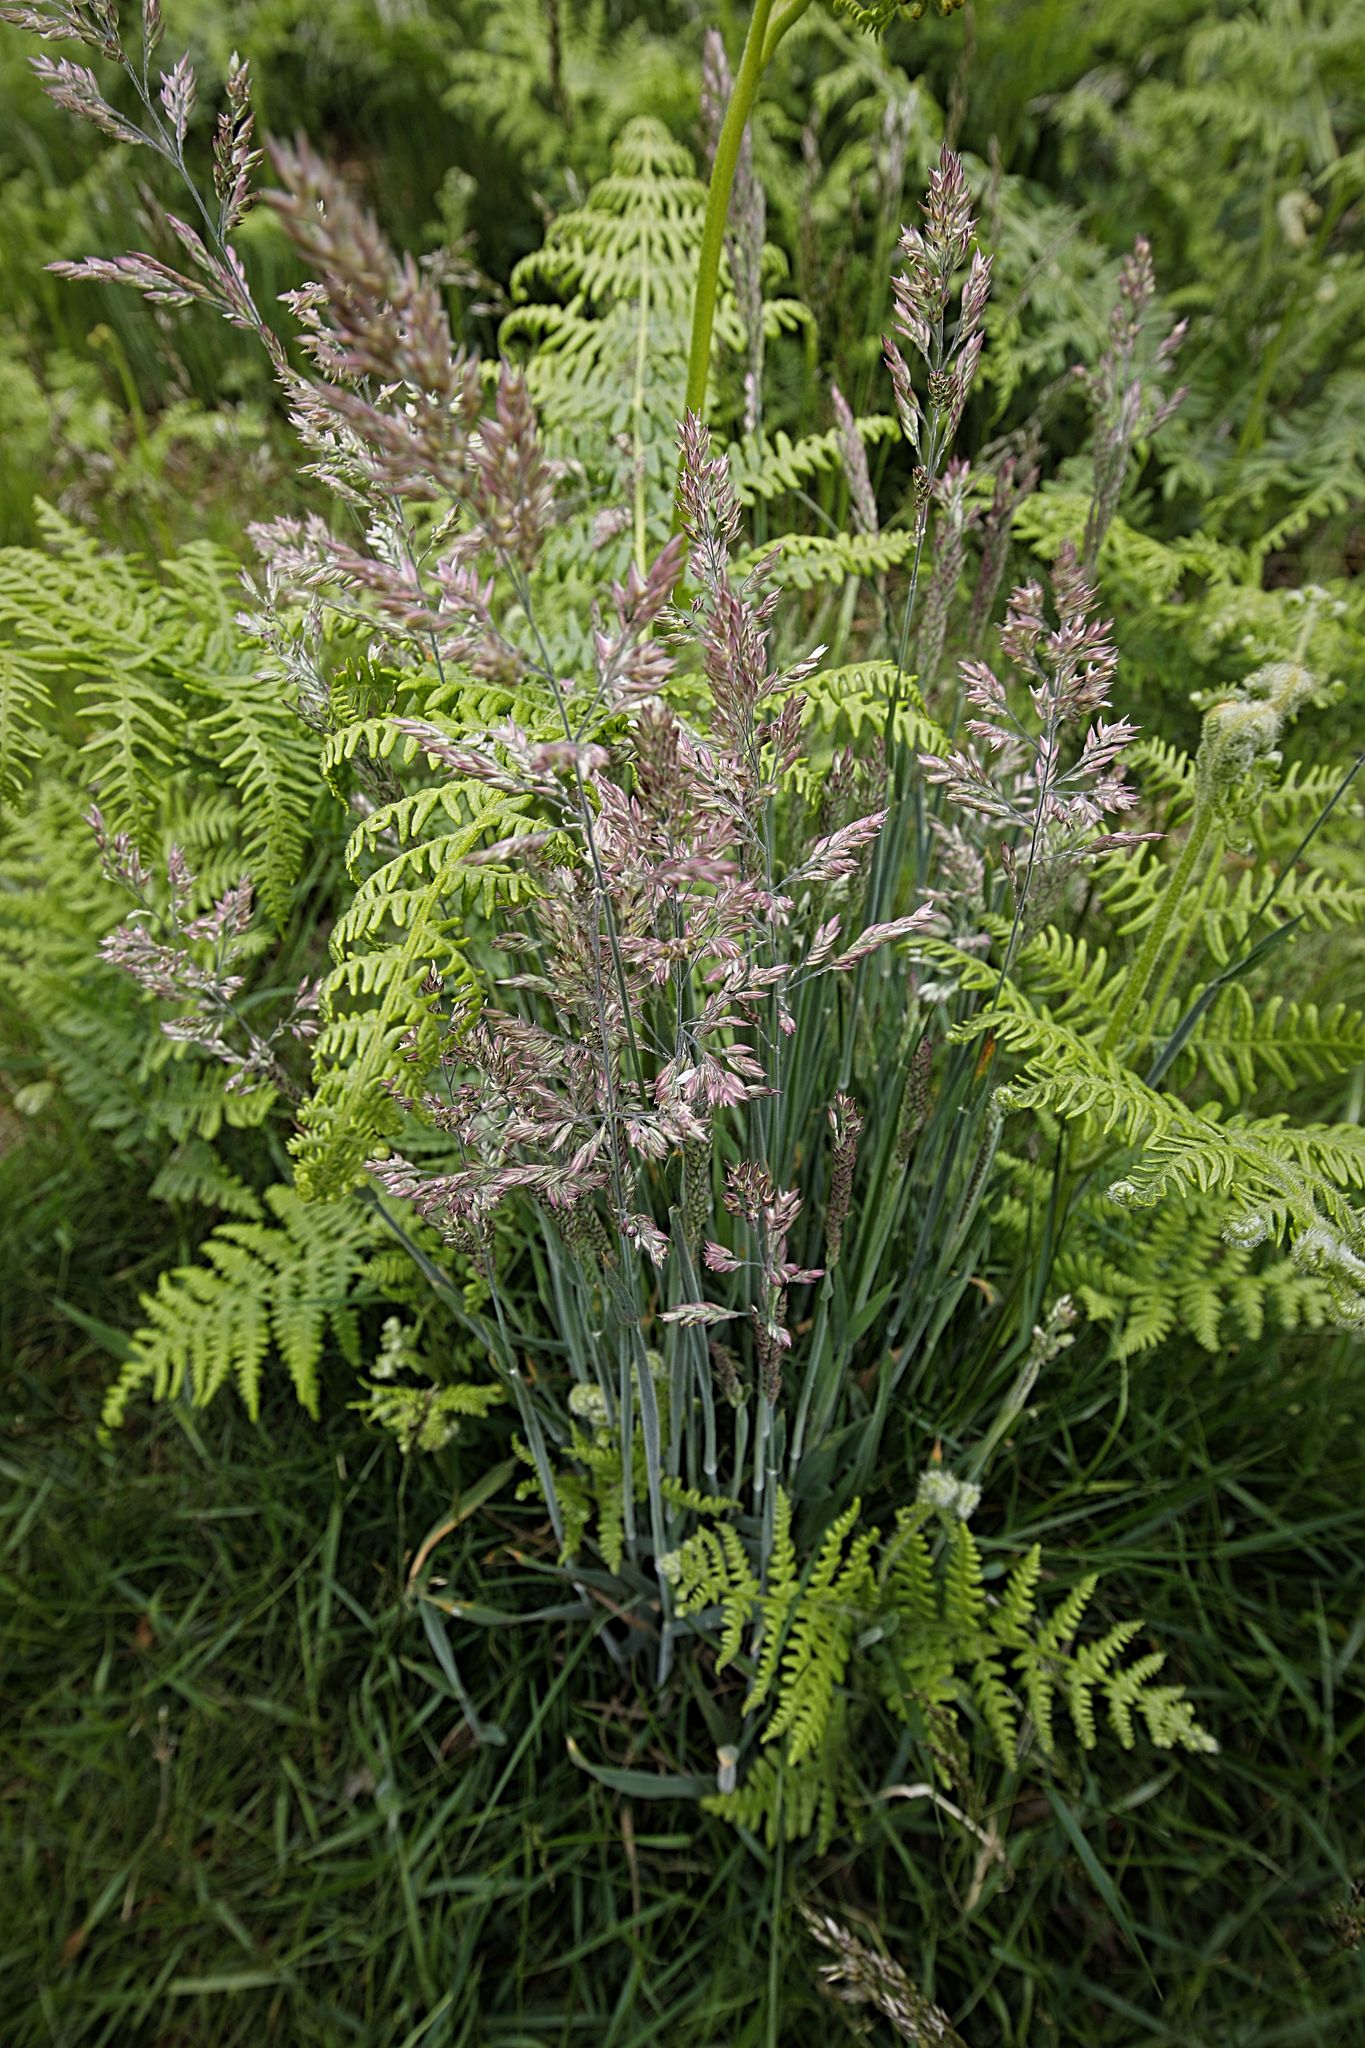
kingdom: Plantae
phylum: Tracheophyta
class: Liliopsida
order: Poales
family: Poaceae
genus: Holcus
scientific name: Holcus lanatus
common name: Yorkshire-fog
